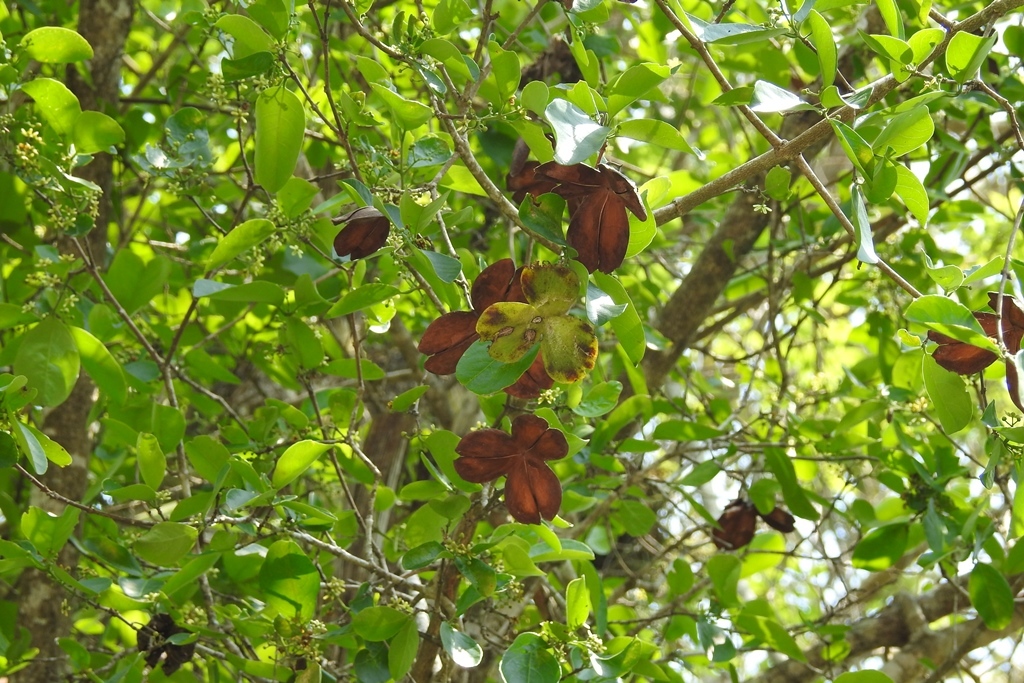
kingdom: Plantae
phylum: Tracheophyta
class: Magnoliopsida
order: Celastrales
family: Celastraceae
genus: Semialarium
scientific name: Semialarium mexicanum
